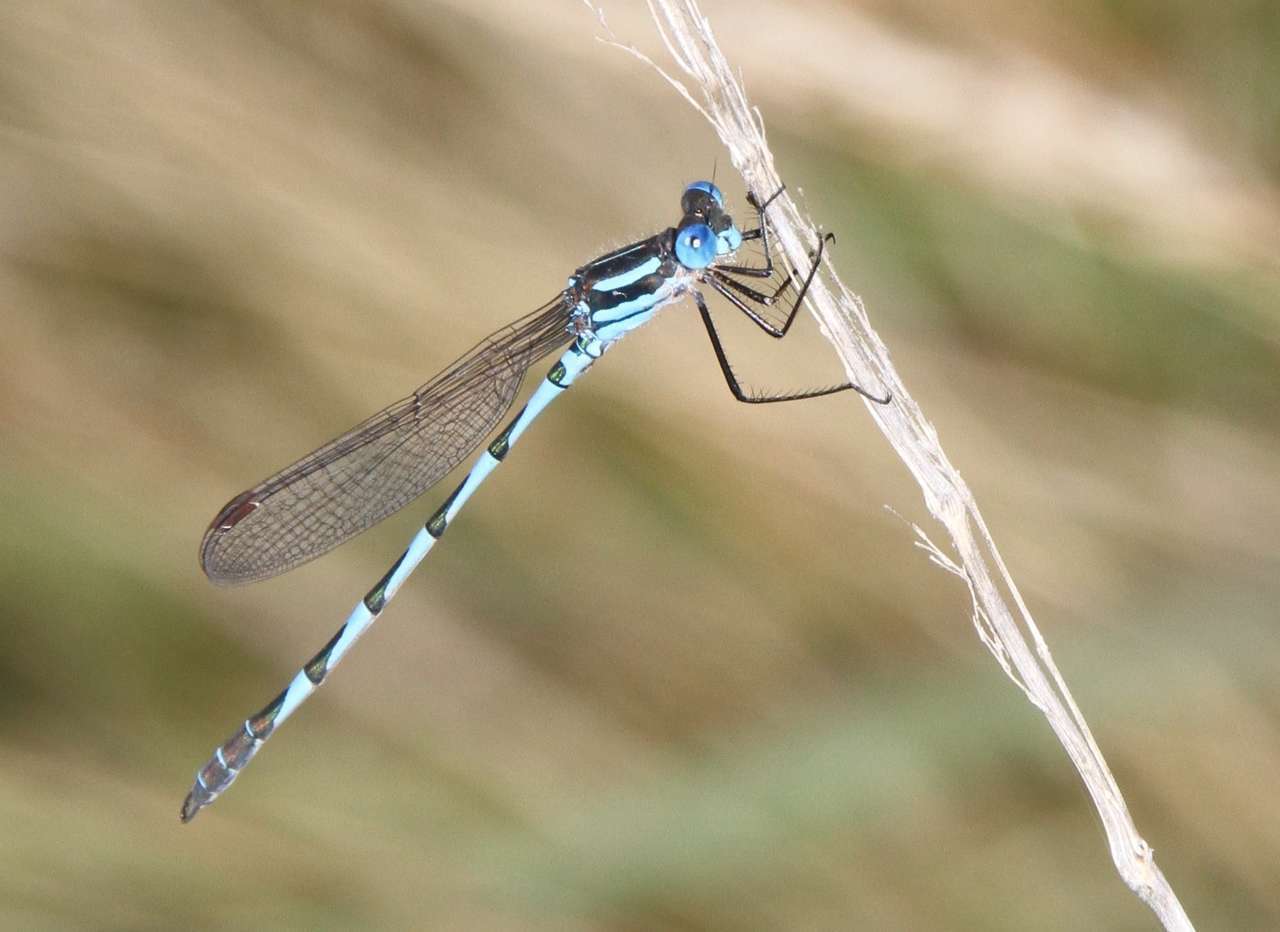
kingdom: Animalia
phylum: Arthropoda
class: Insecta
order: Odonata
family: Lestidae
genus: Austrolestes
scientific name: Austrolestes annulosus
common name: Blue ringtail
